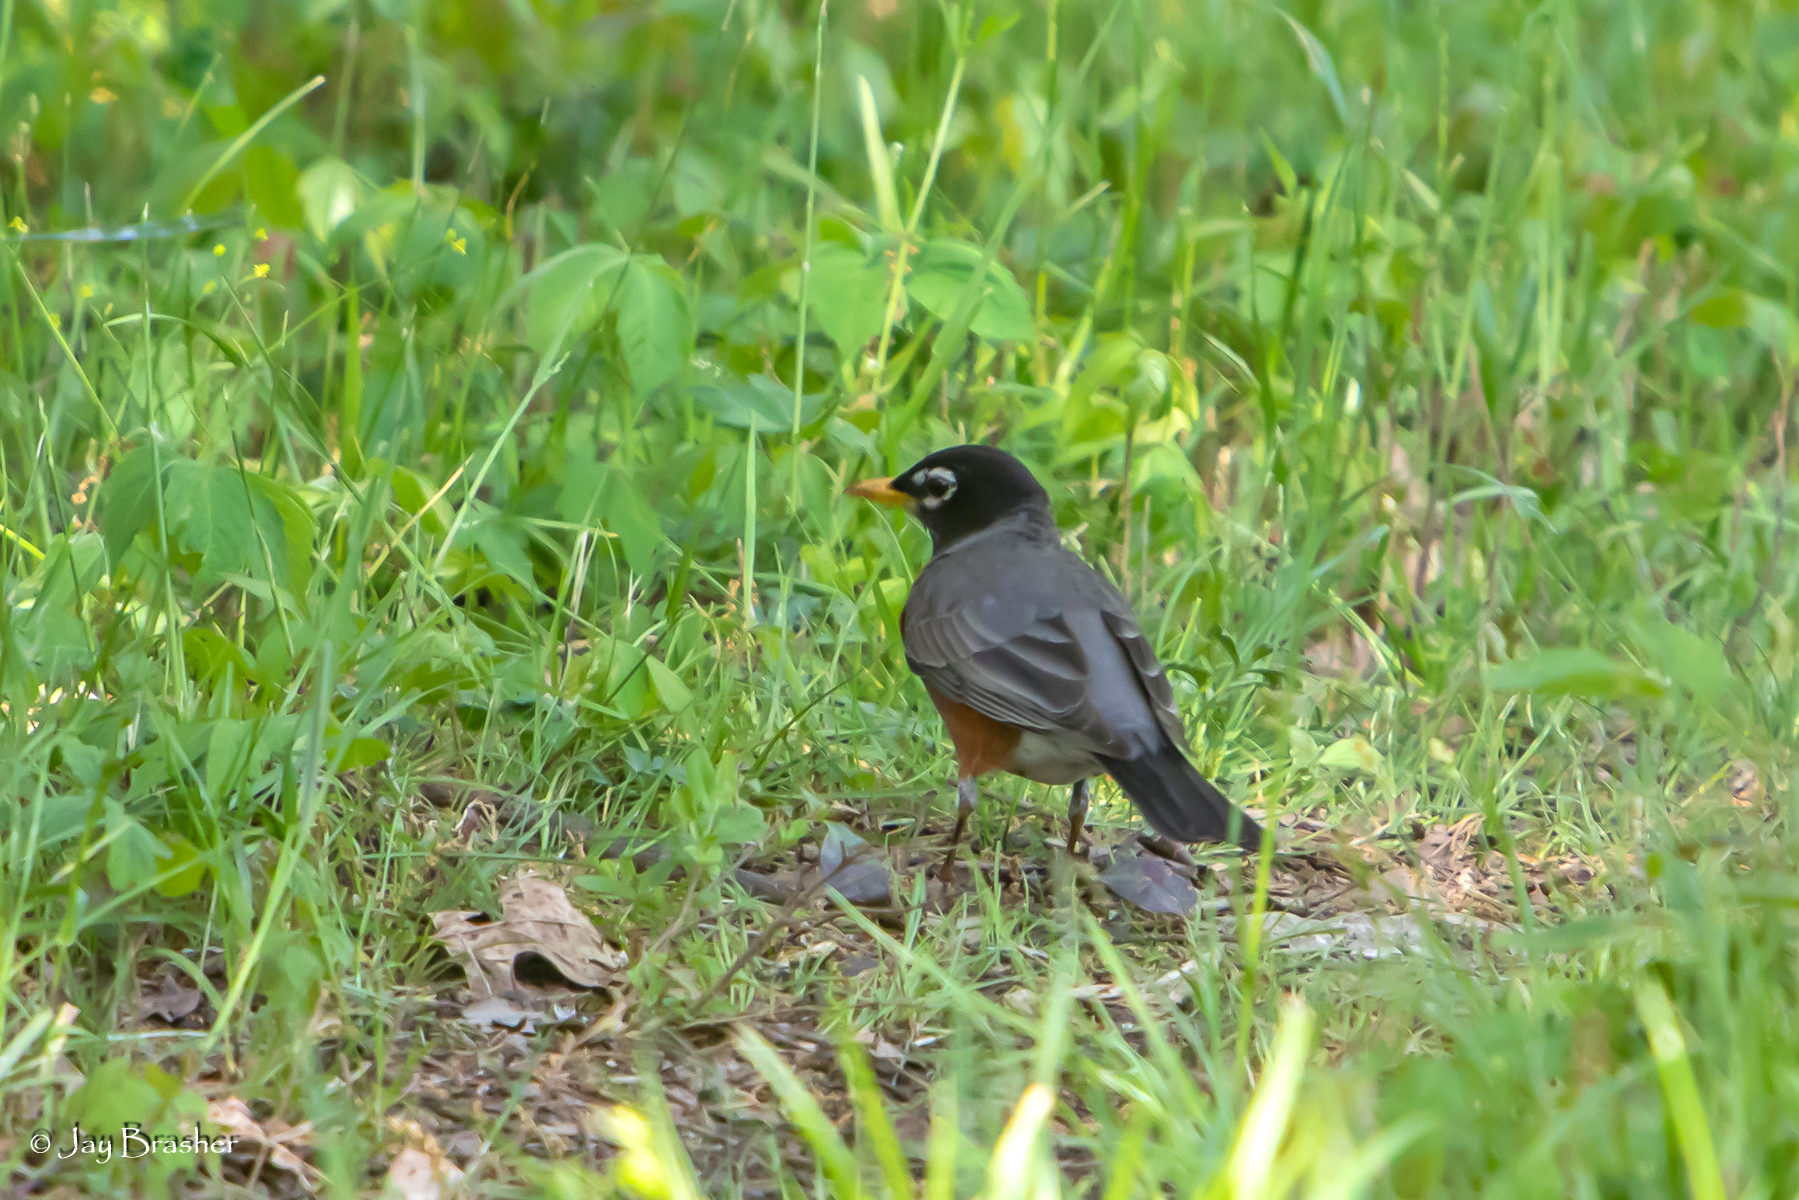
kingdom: Animalia
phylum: Chordata
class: Aves
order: Passeriformes
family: Turdidae
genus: Turdus
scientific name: Turdus migratorius
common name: American robin
